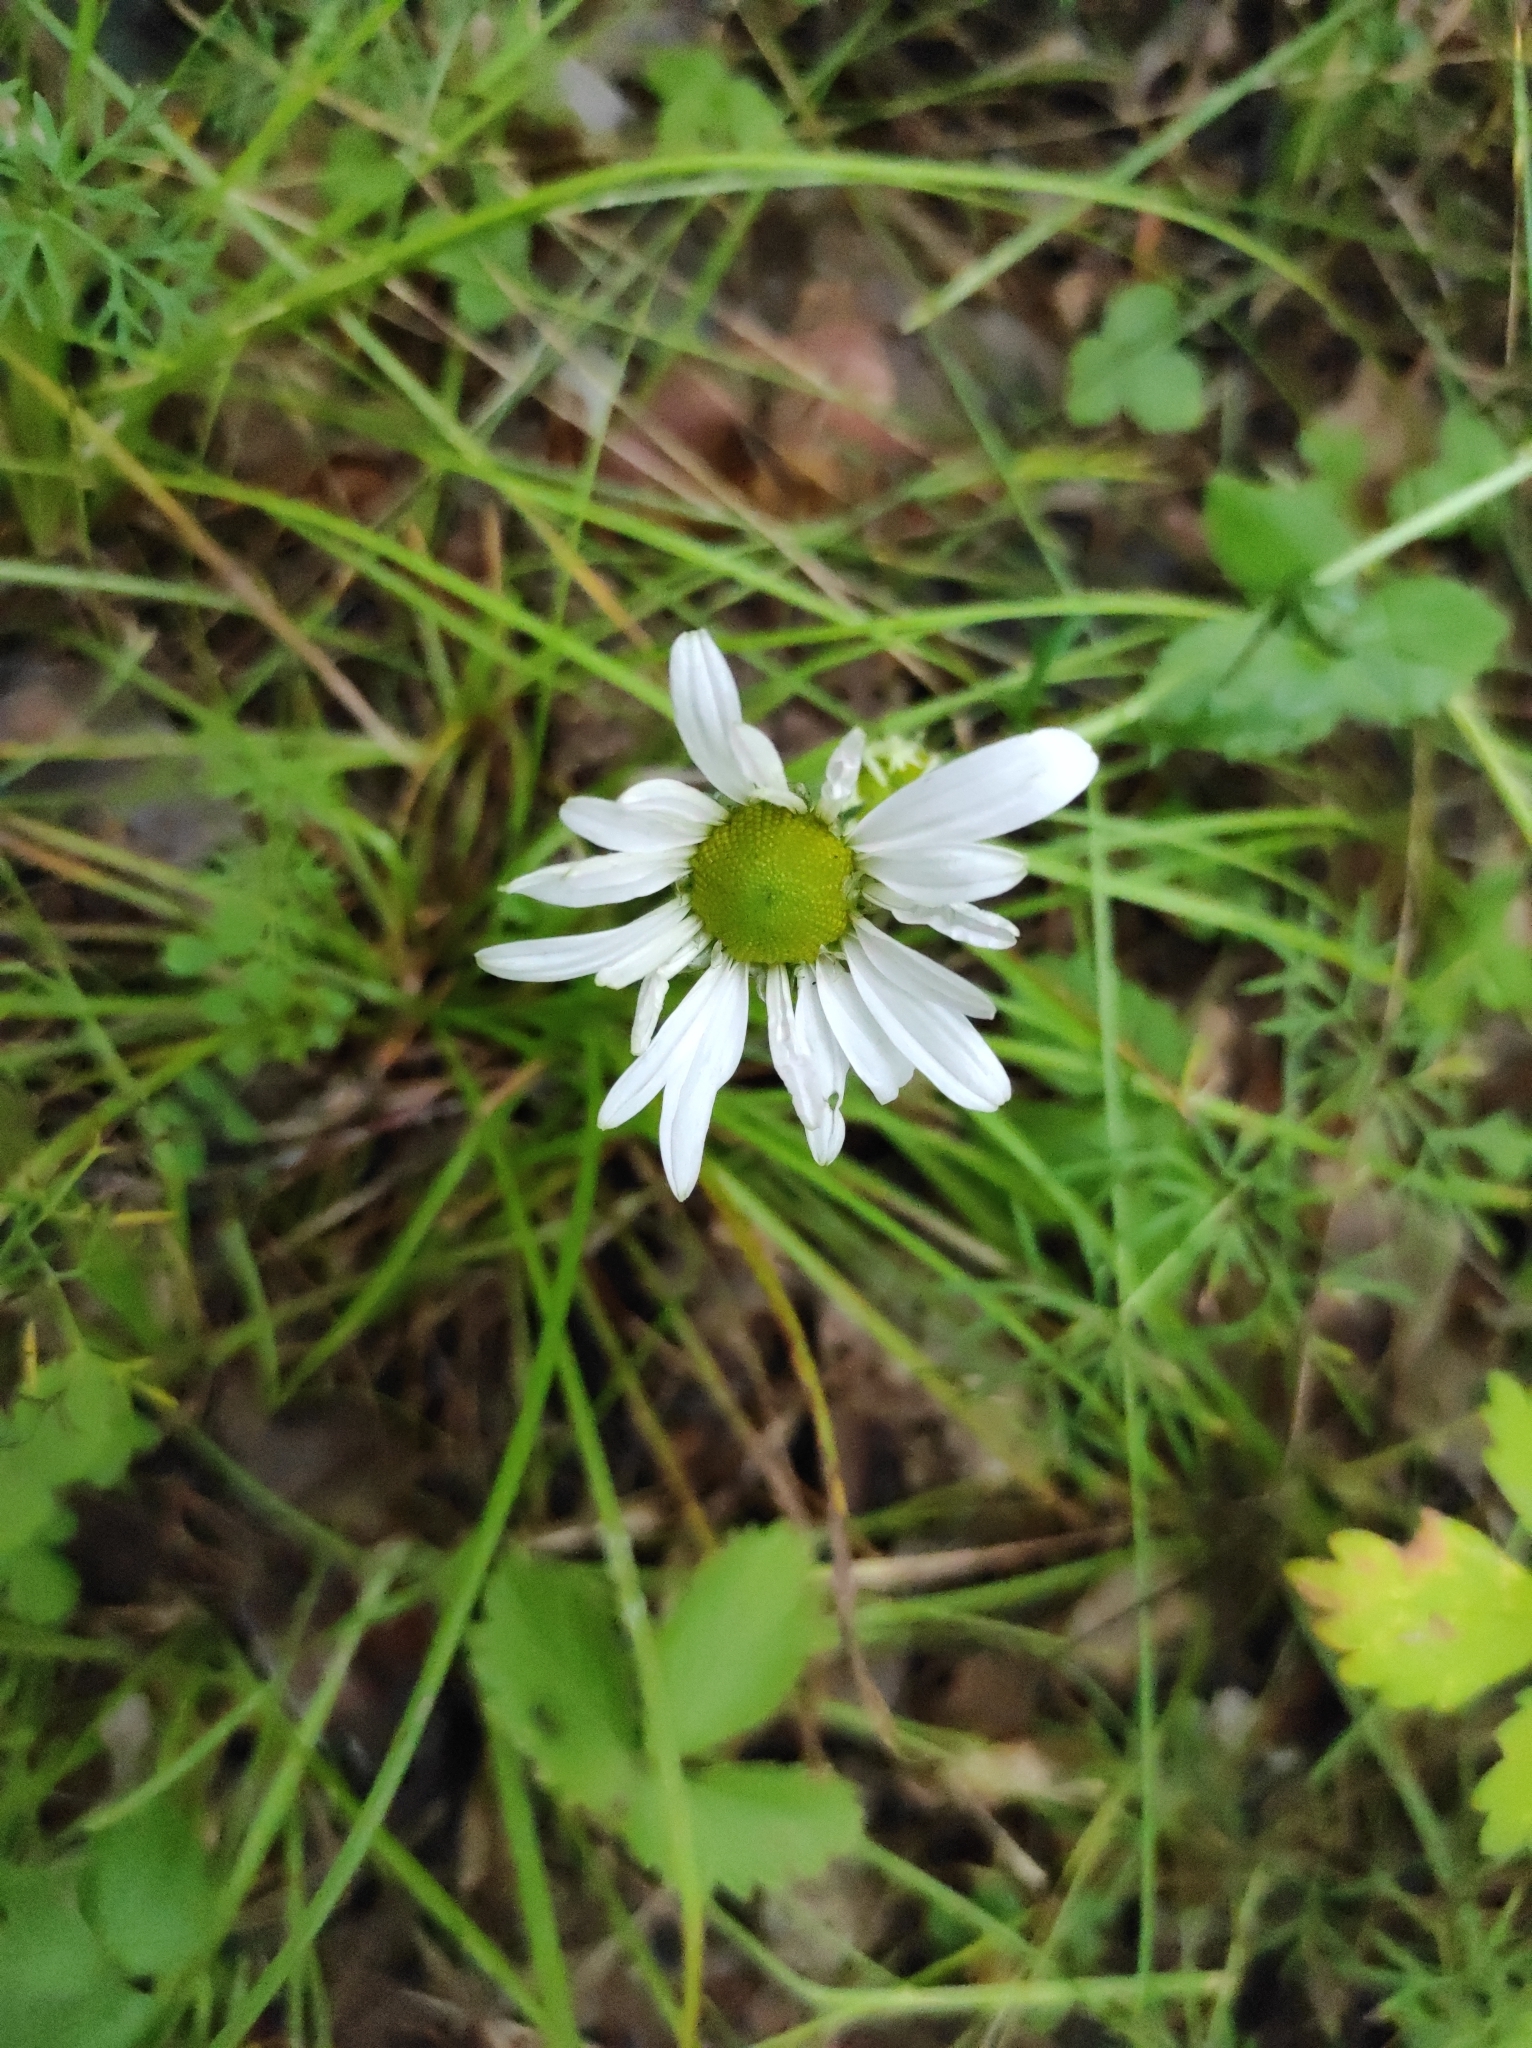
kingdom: Plantae
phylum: Tracheophyta
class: Magnoliopsida
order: Asterales
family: Asteraceae
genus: Chrysanthemum
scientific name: Chrysanthemum zawadzkii
